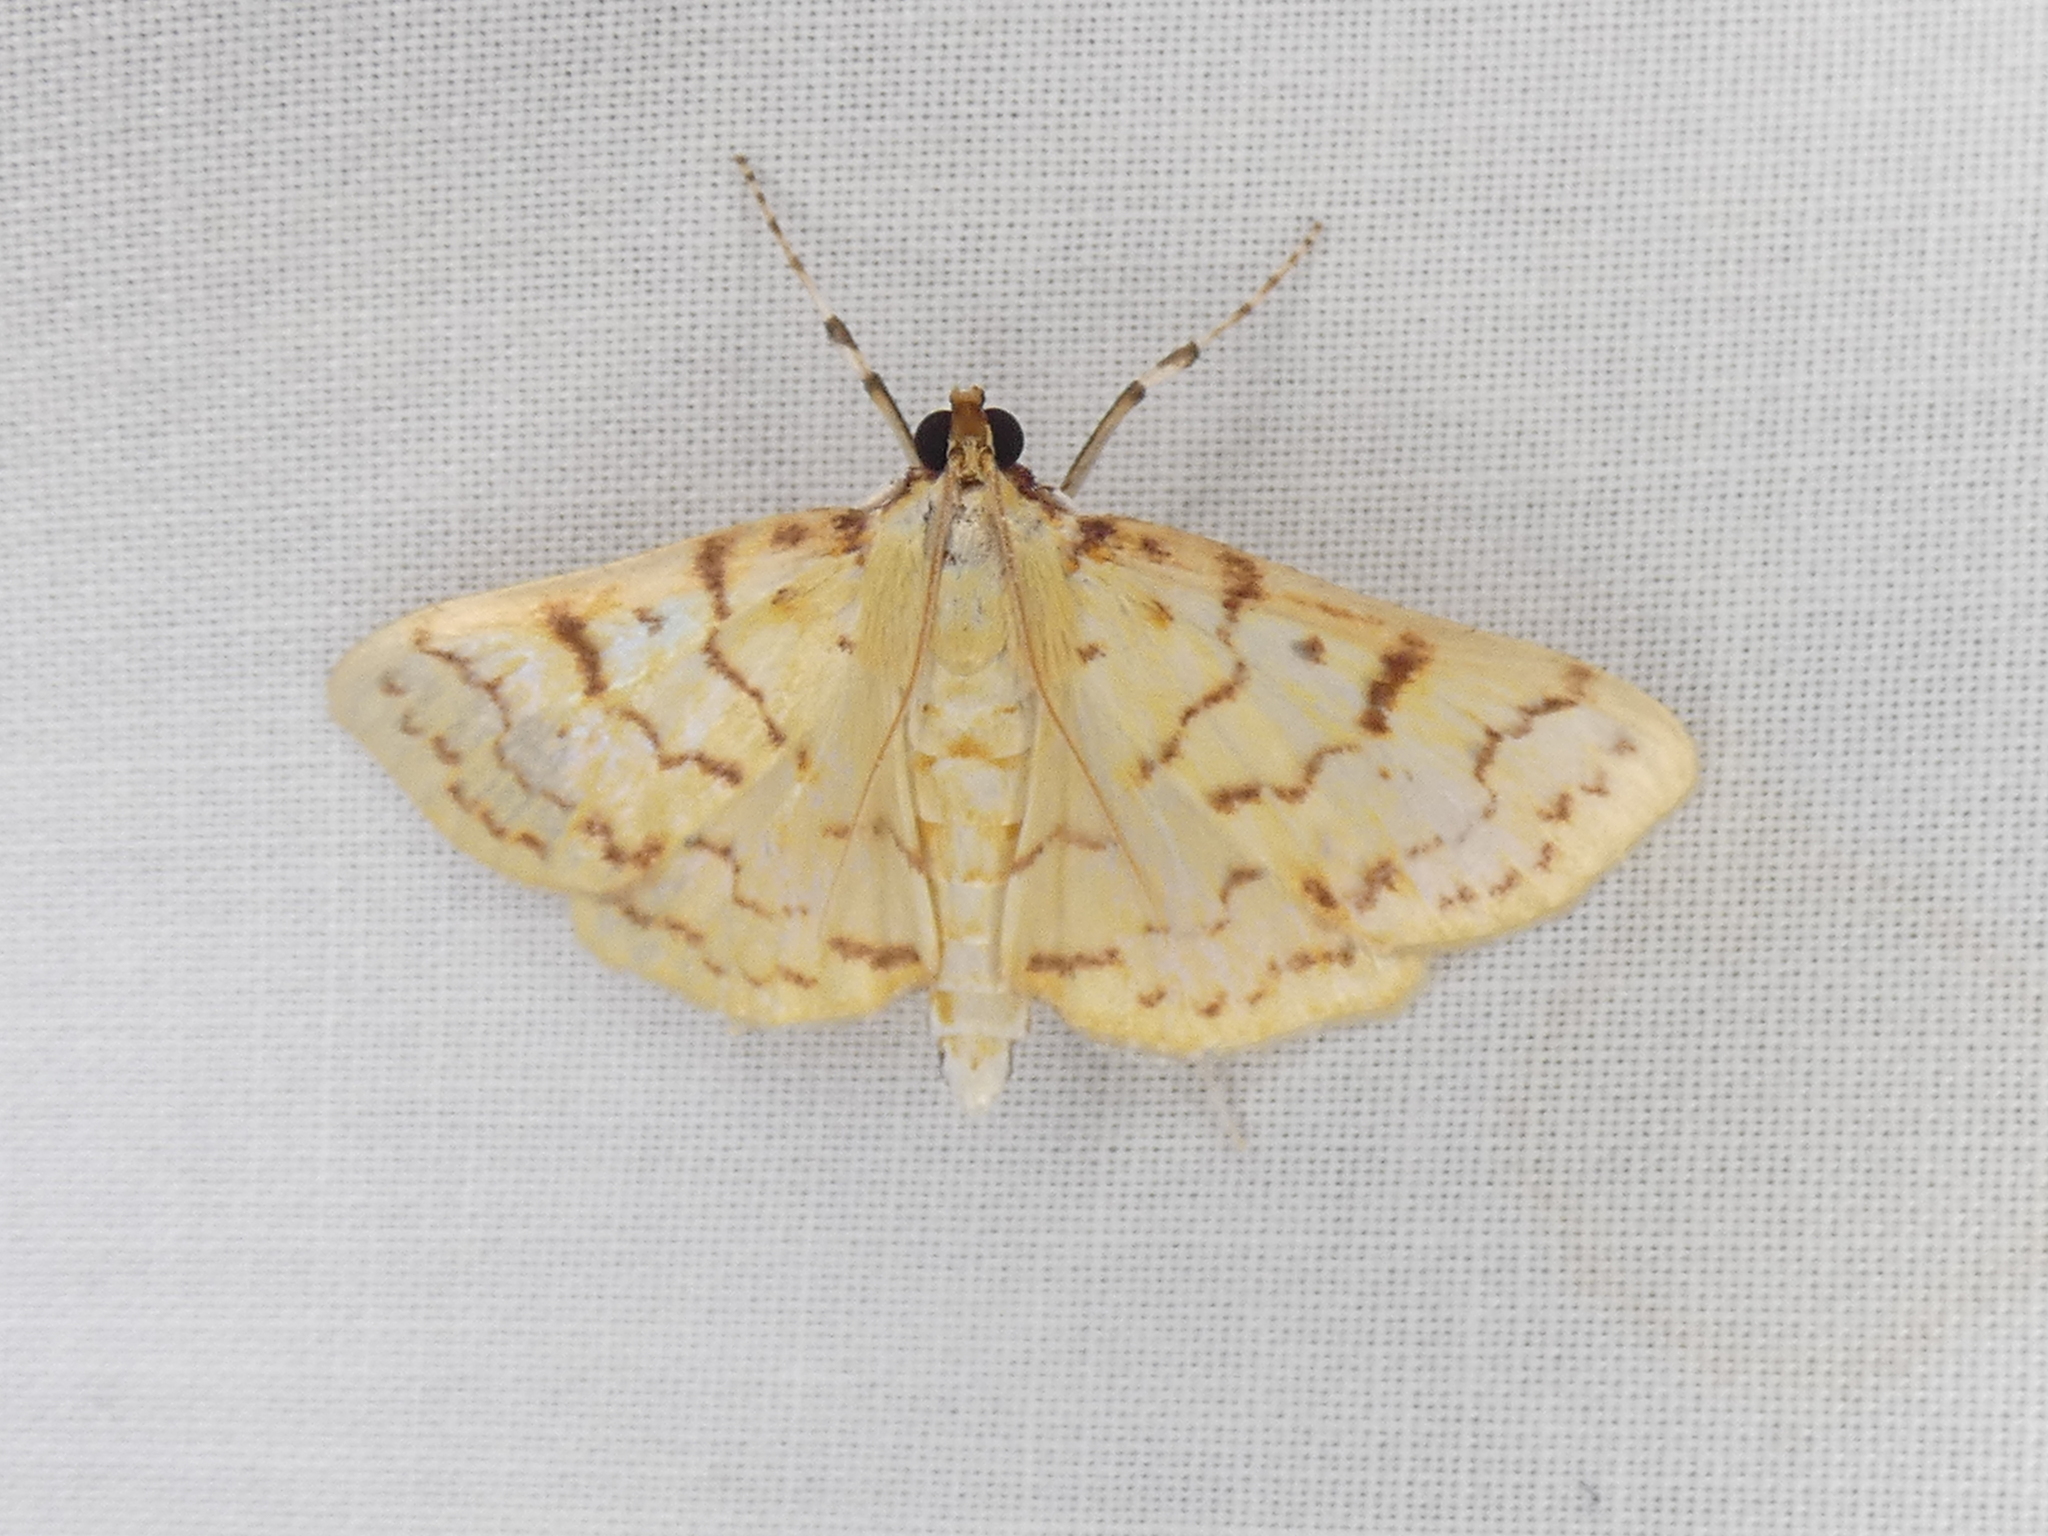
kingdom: Animalia
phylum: Arthropoda
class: Insecta
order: Lepidoptera
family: Crambidae
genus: Polygrammodes
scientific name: Polygrammodes flavidalis
